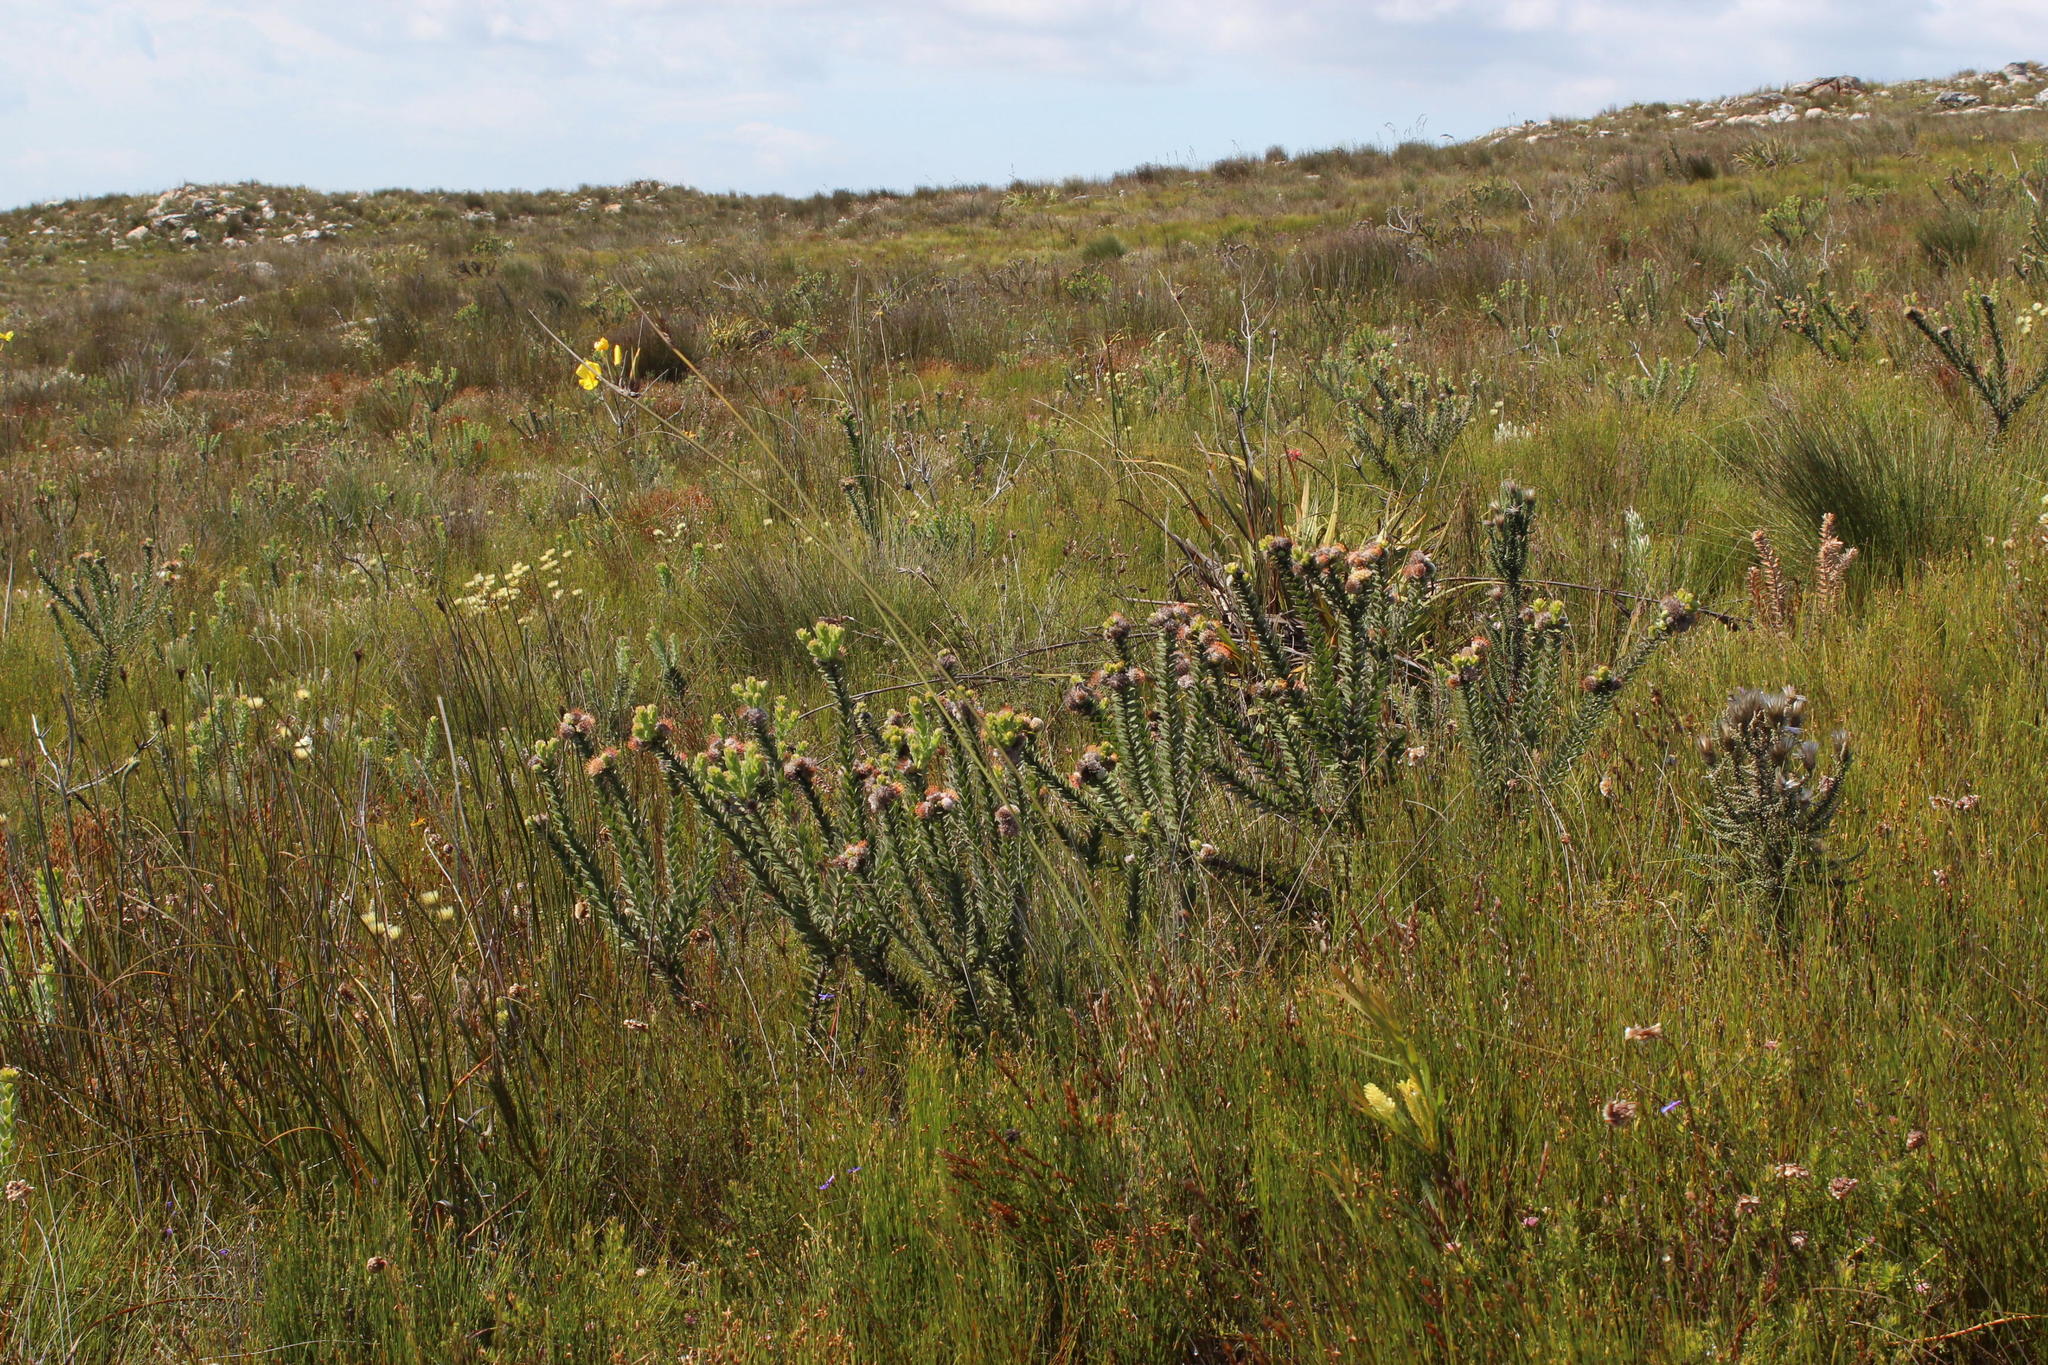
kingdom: Plantae
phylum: Tracheophyta
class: Magnoliopsida
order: Proteales
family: Proteaceae
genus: Leucospermum
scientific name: Leucospermum truncatulum
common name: Oval-leaf pincushion
